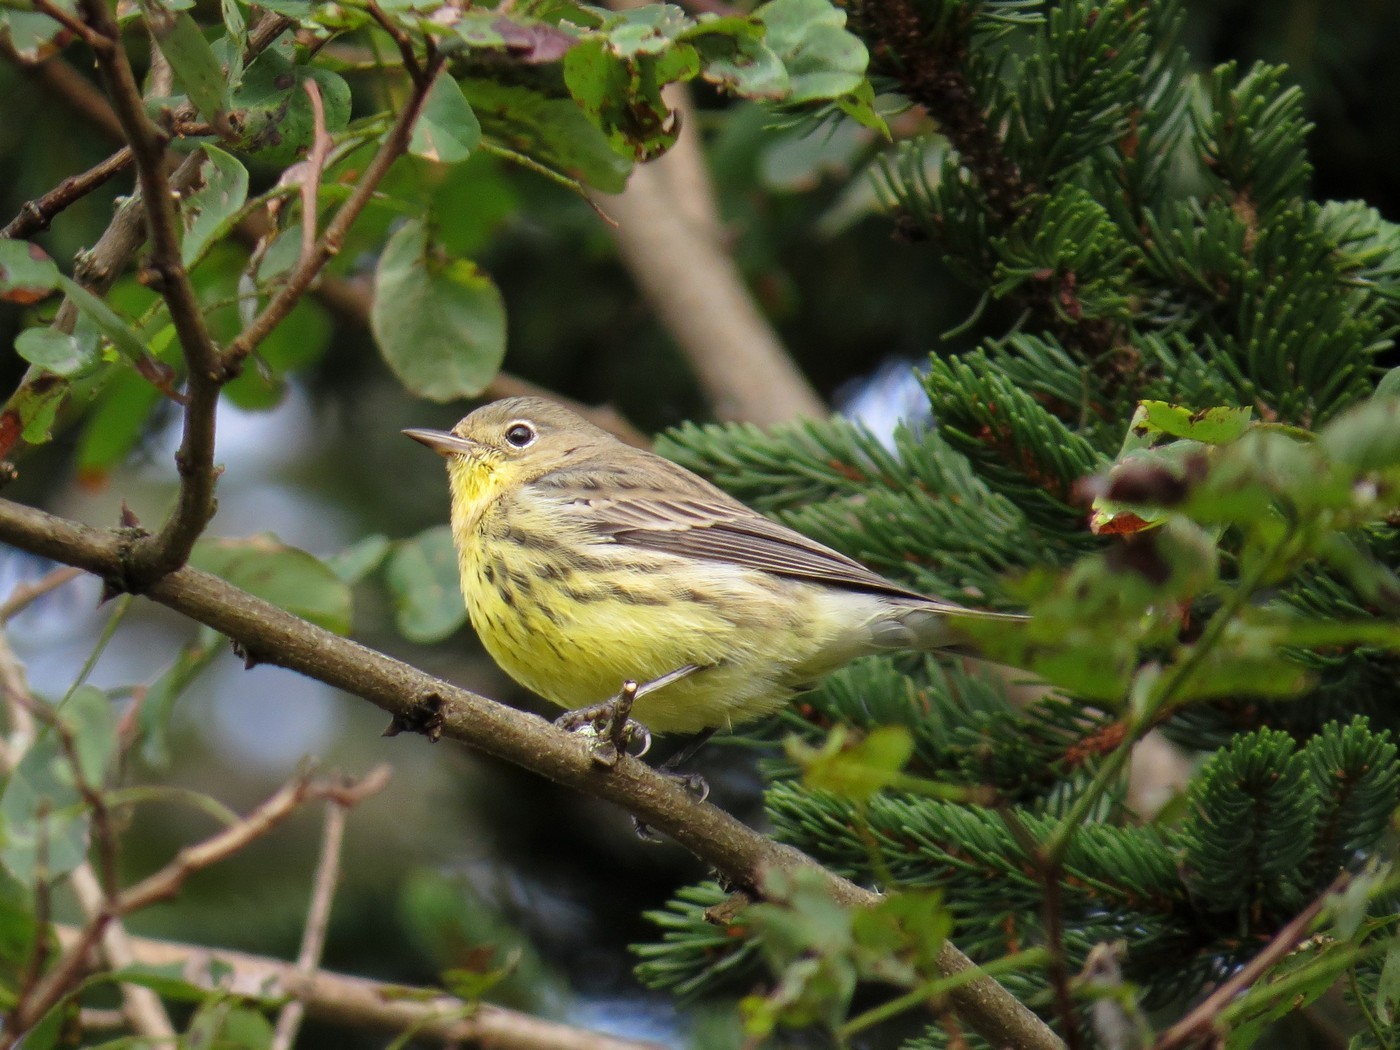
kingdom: Animalia
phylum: Chordata
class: Aves
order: Passeriformes
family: Parulidae
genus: Setophaga
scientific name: Setophaga kirtlandii
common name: Kirtland's warbler
